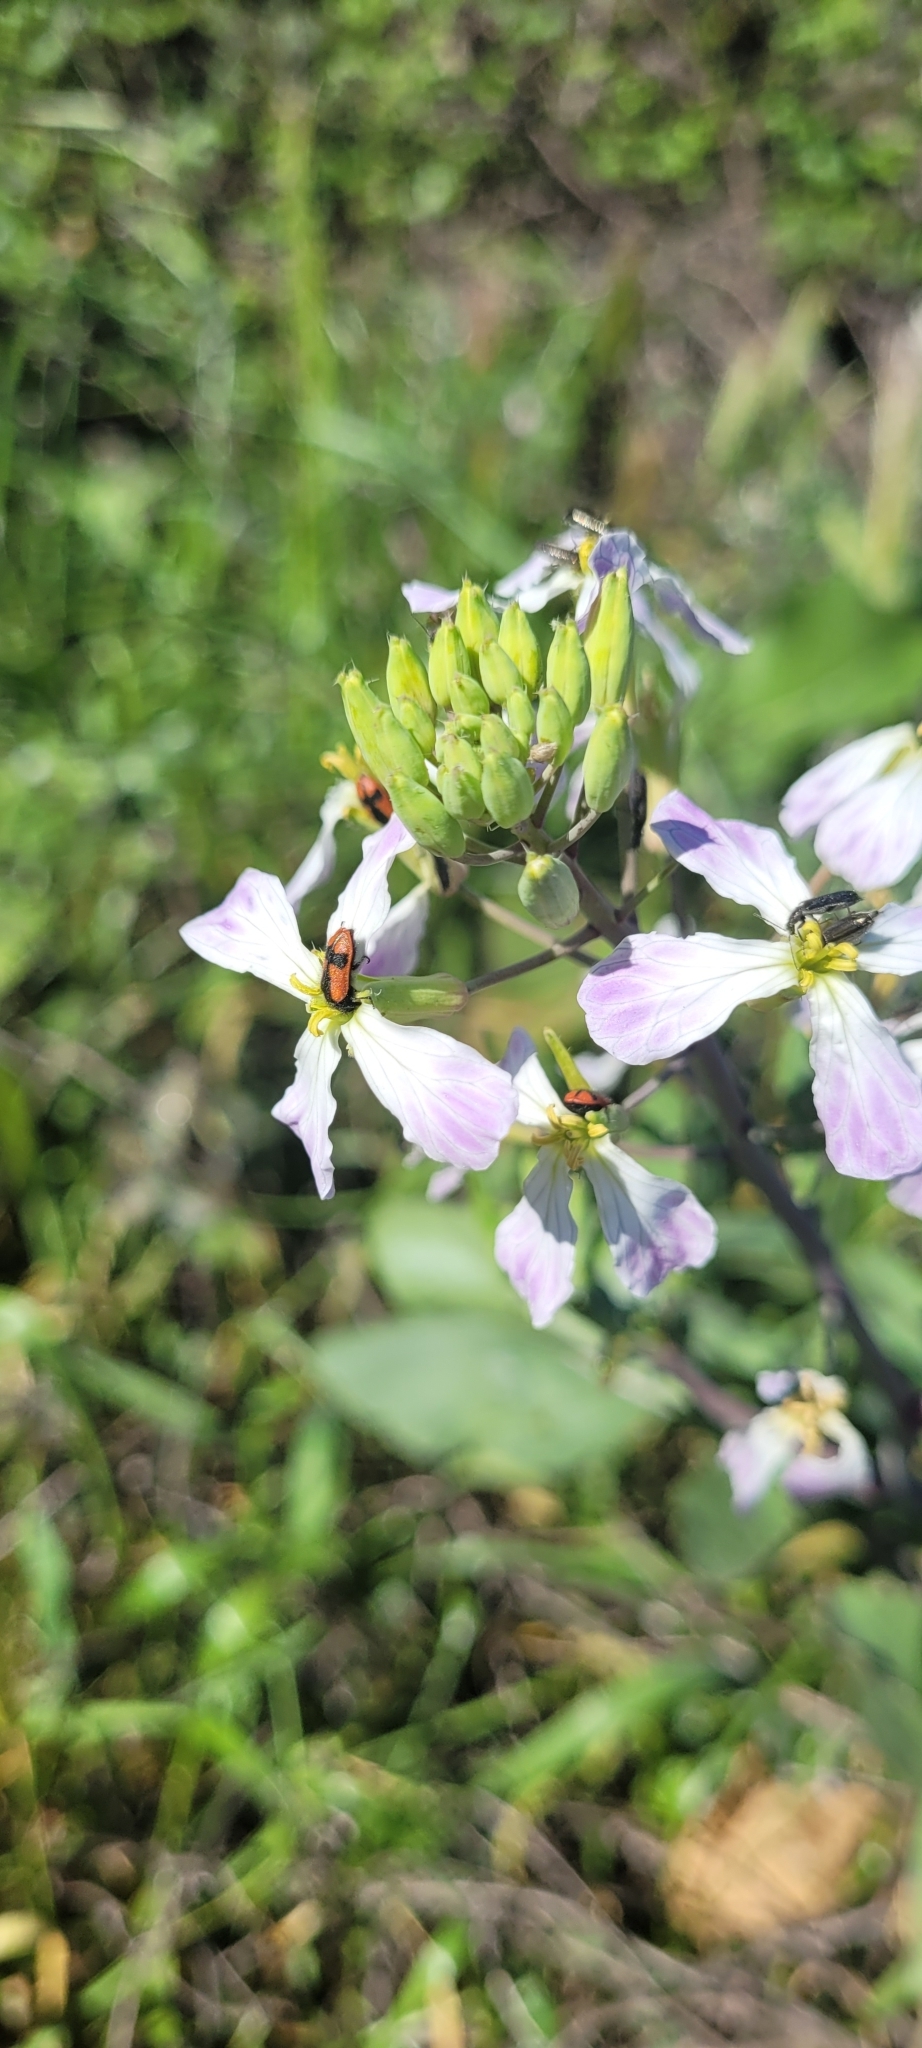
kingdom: Animalia
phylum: Arthropoda
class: Insecta
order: Coleoptera
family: Melyridae
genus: Arthrobrachus
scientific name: Arthrobrachus nigromaculatus
